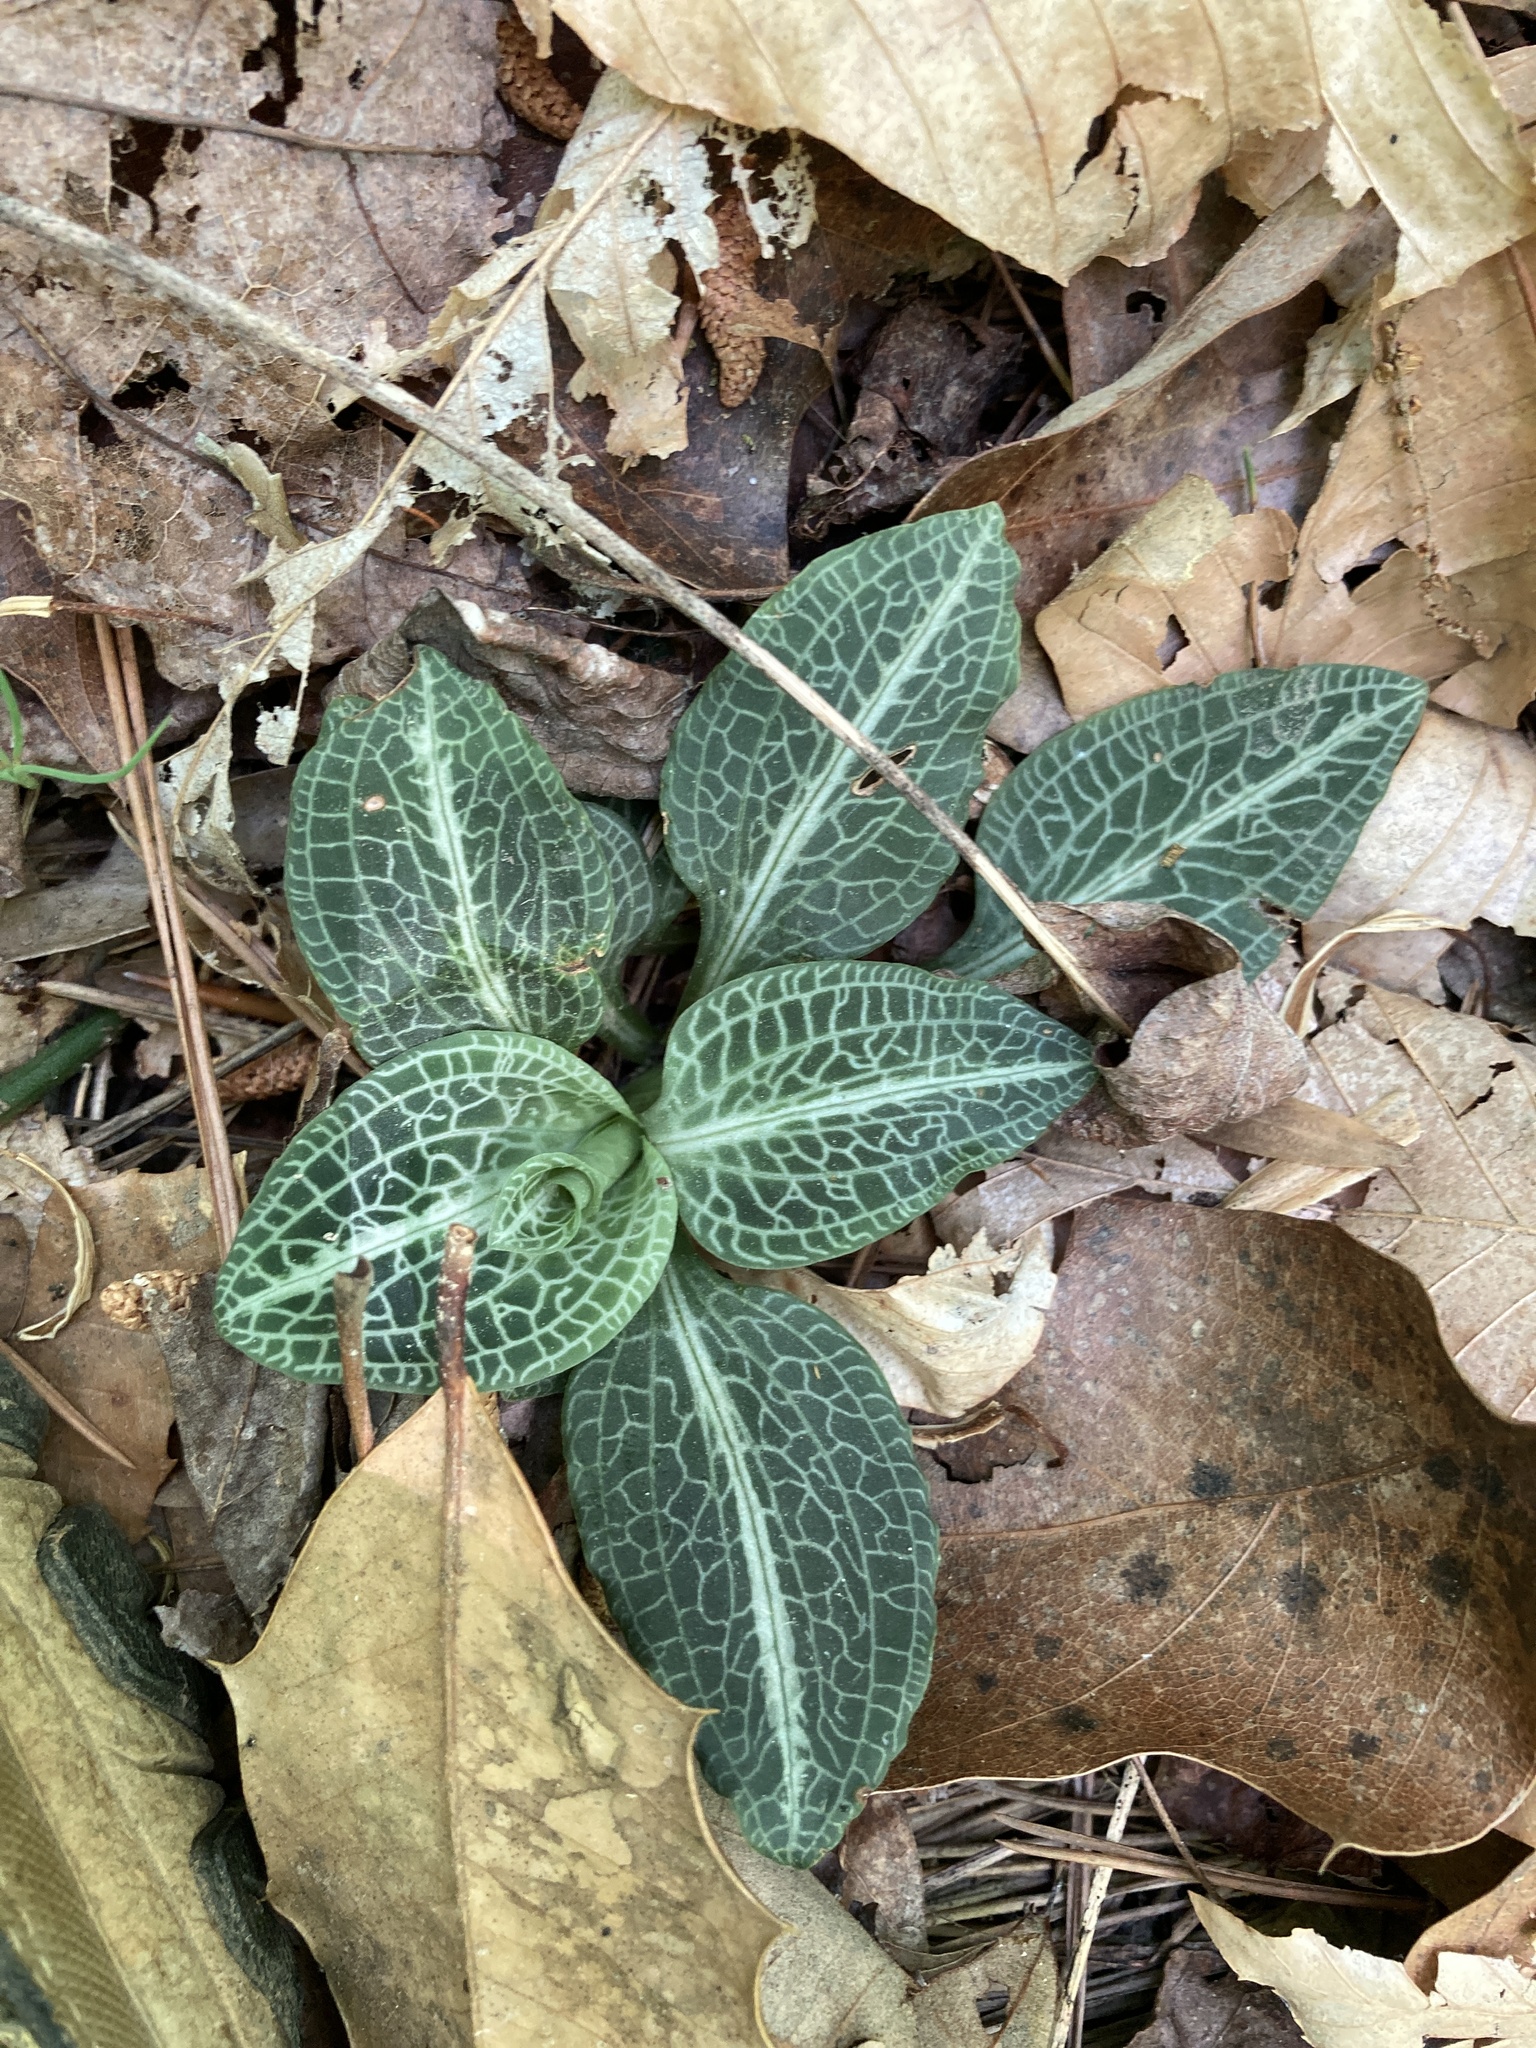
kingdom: Plantae
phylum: Tracheophyta
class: Liliopsida
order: Asparagales
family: Orchidaceae
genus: Goodyera
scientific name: Goodyera pubescens
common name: Downy rattlesnake-plantain
